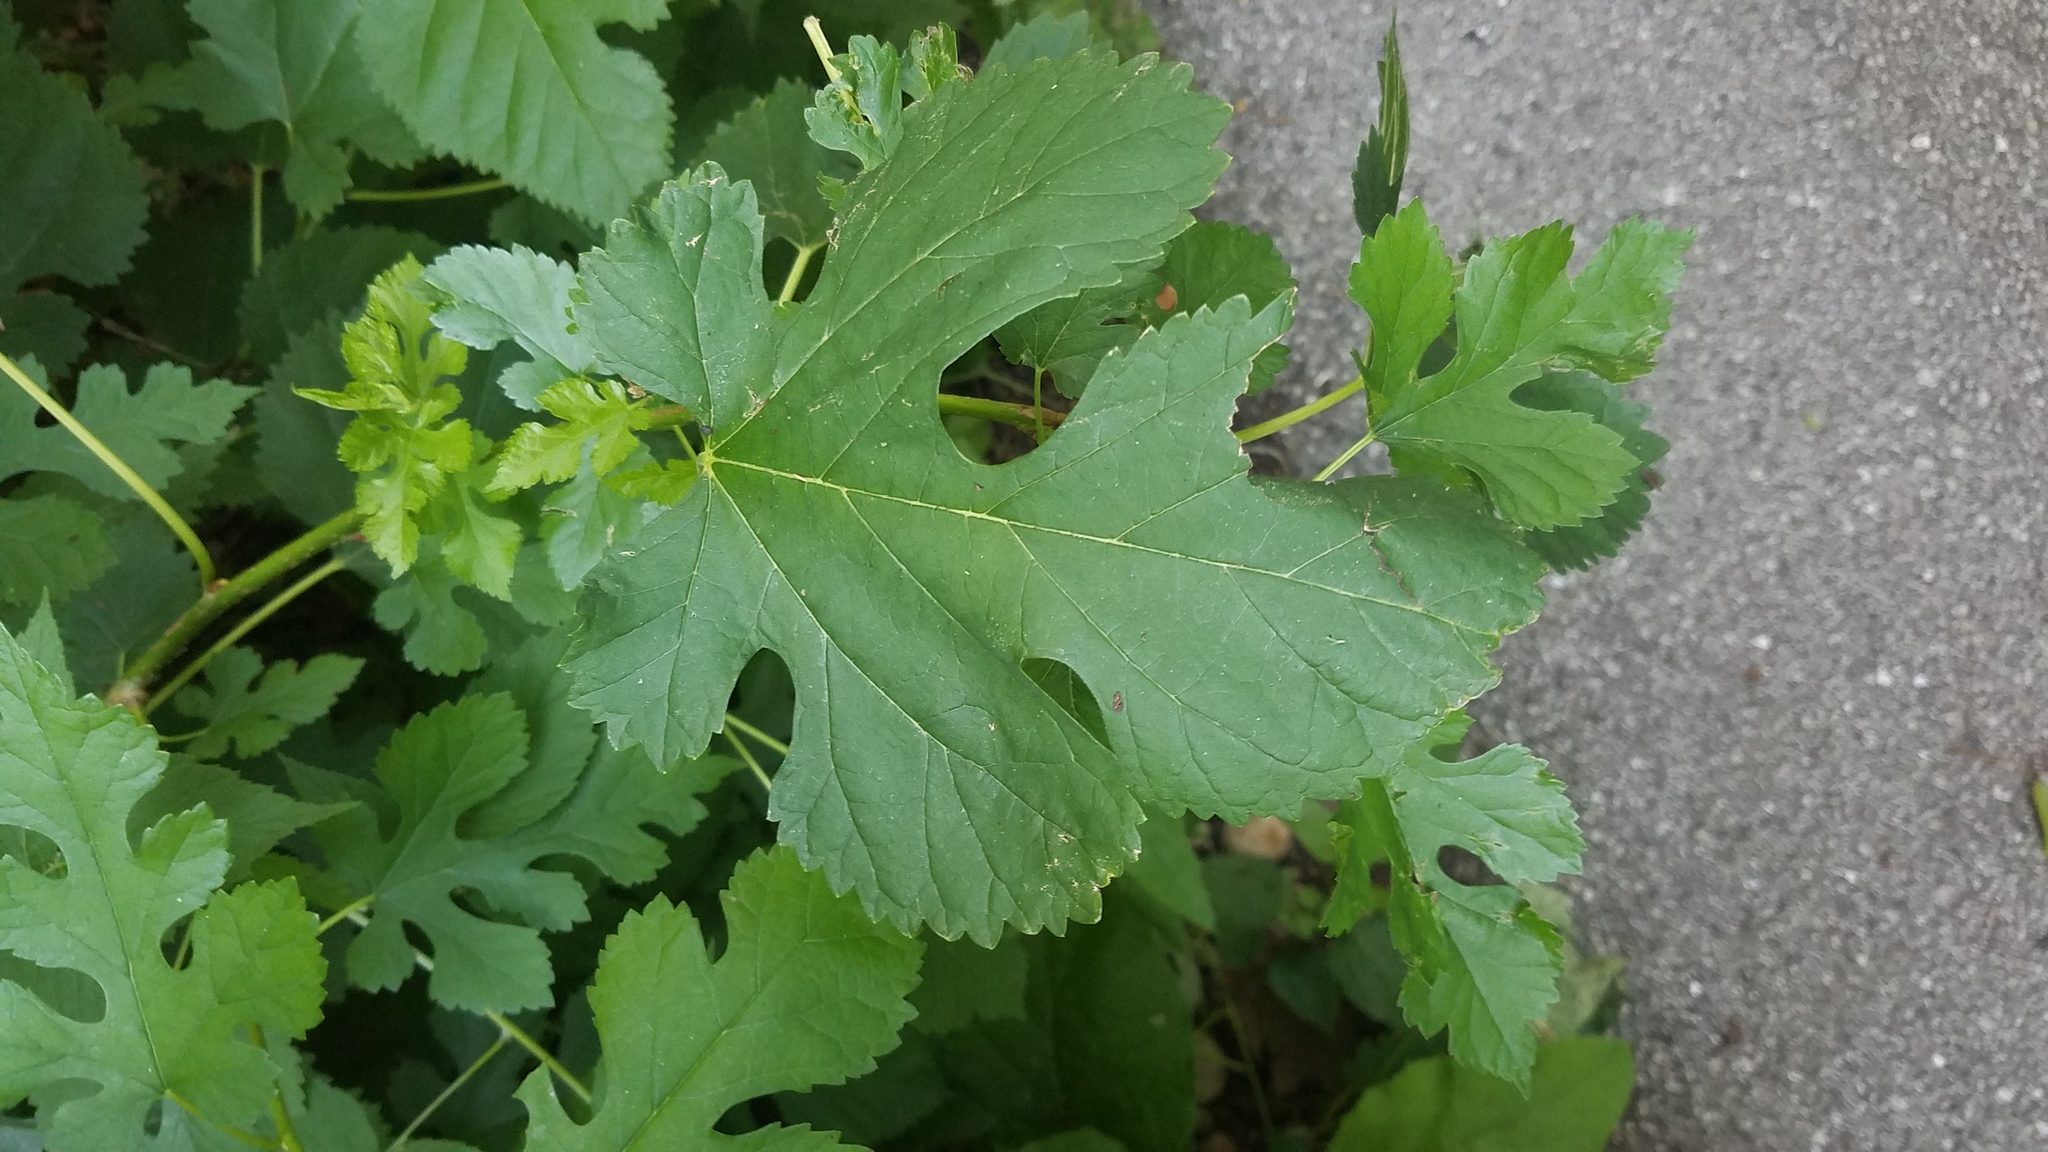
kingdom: Plantae
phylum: Tracheophyta
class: Magnoliopsida
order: Rosales
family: Moraceae
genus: Morus
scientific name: Morus alba
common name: White mulberry
